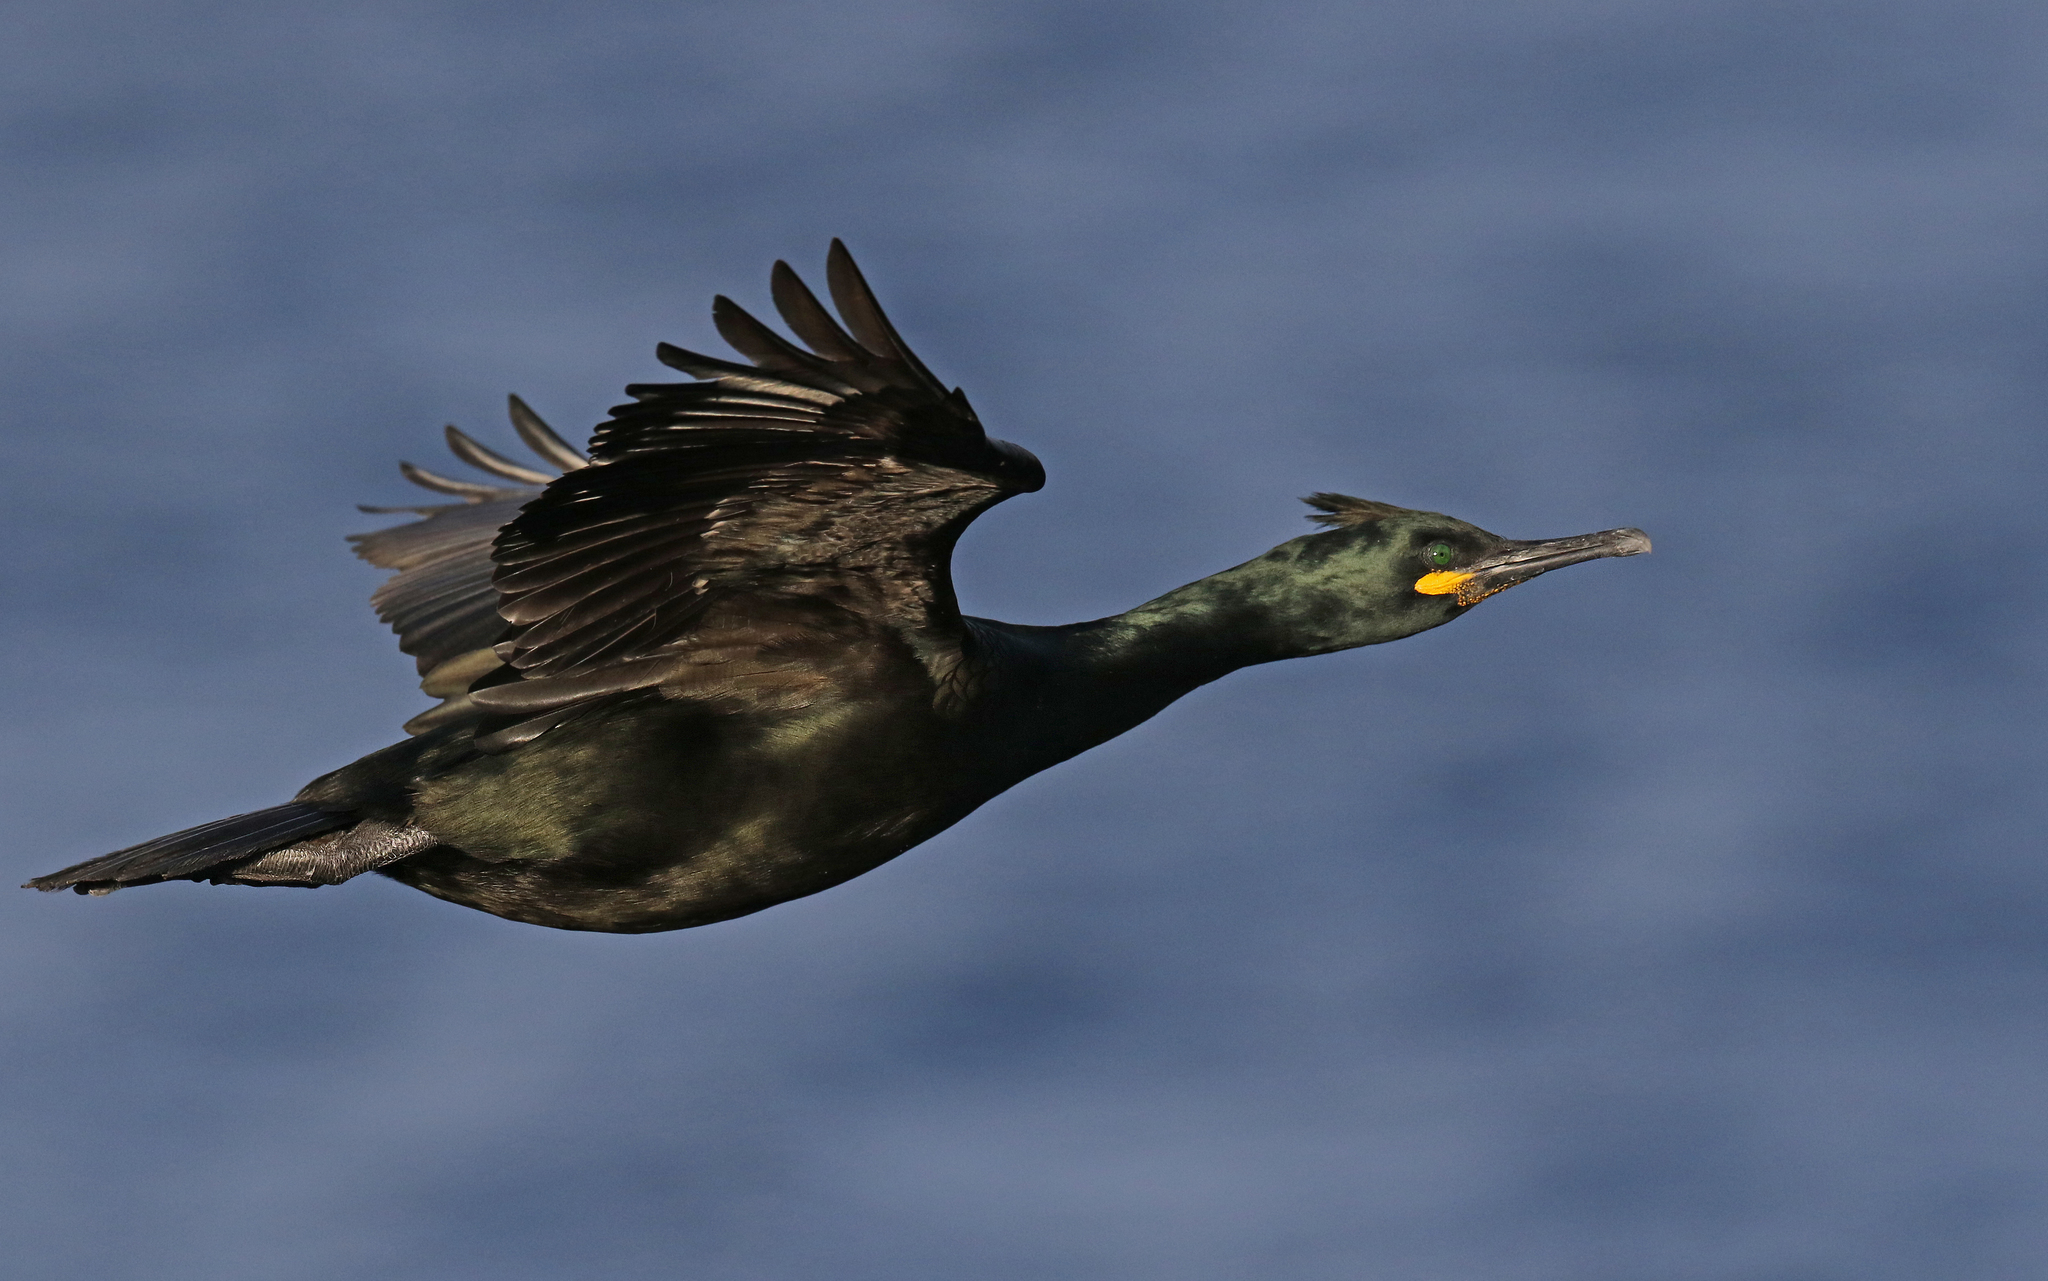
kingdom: Animalia
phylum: Chordata
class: Aves
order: Suliformes
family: Phalacrocoracidae
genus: Phalacrocorax
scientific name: Phalacrocorax aristotelis
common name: European shag
